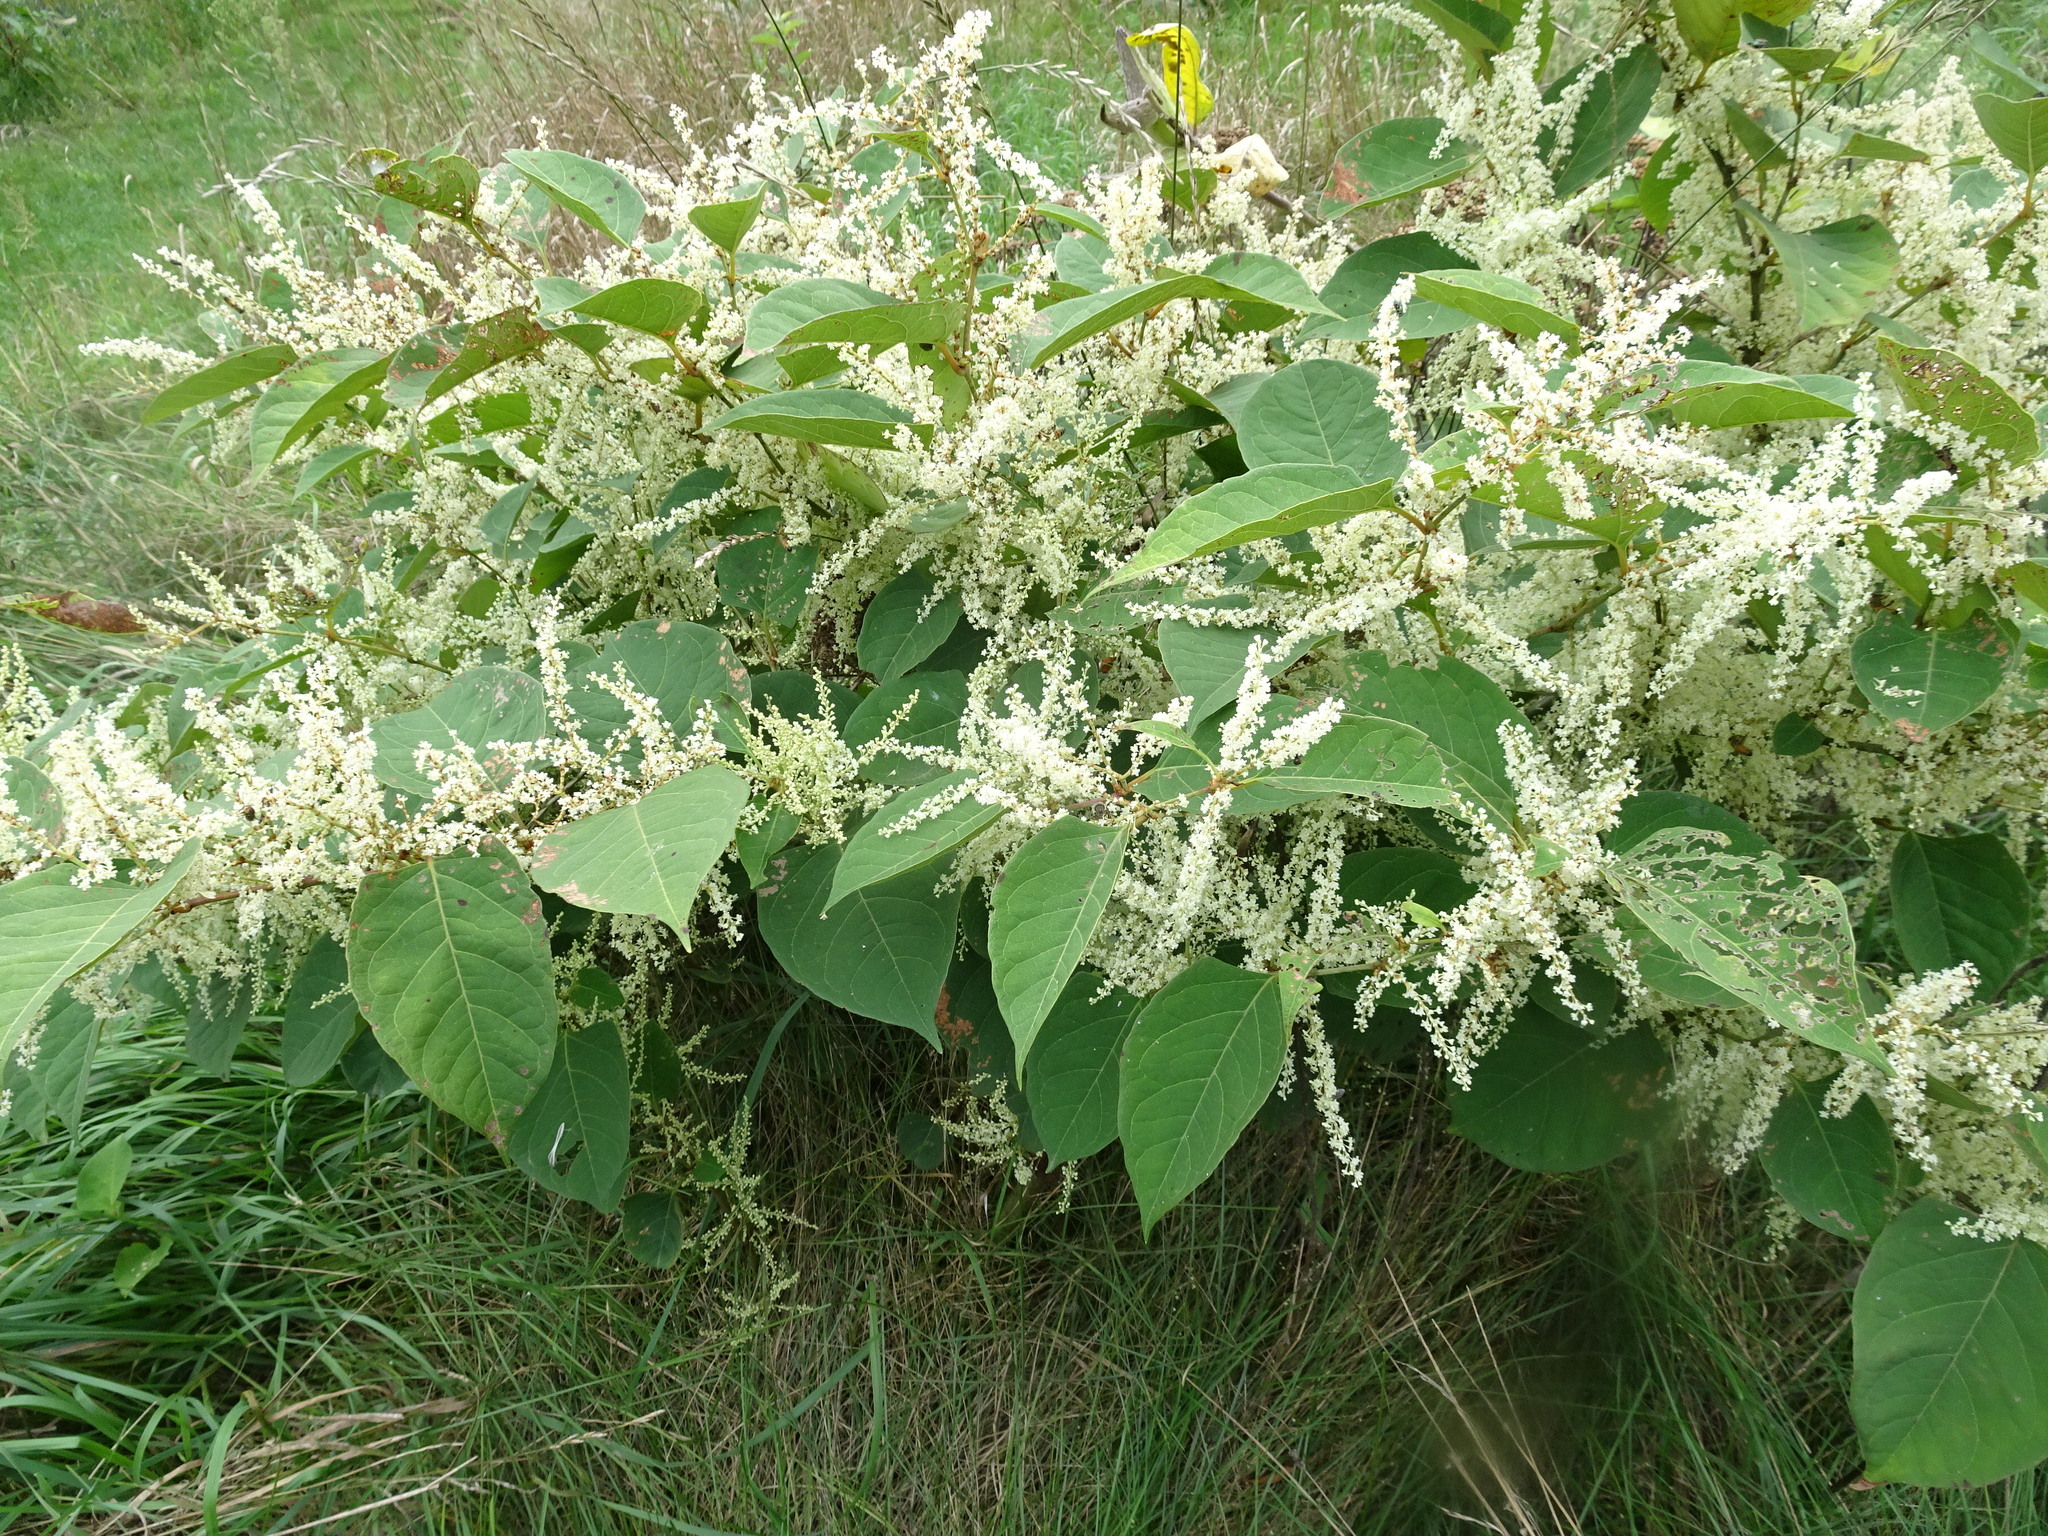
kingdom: Plantae
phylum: Tracheophyta
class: Magnoliopsida
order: Caryophyllales
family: Polygonaceae
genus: Reynoutria
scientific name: Reynoutria japonica
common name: Japanese knotweed
